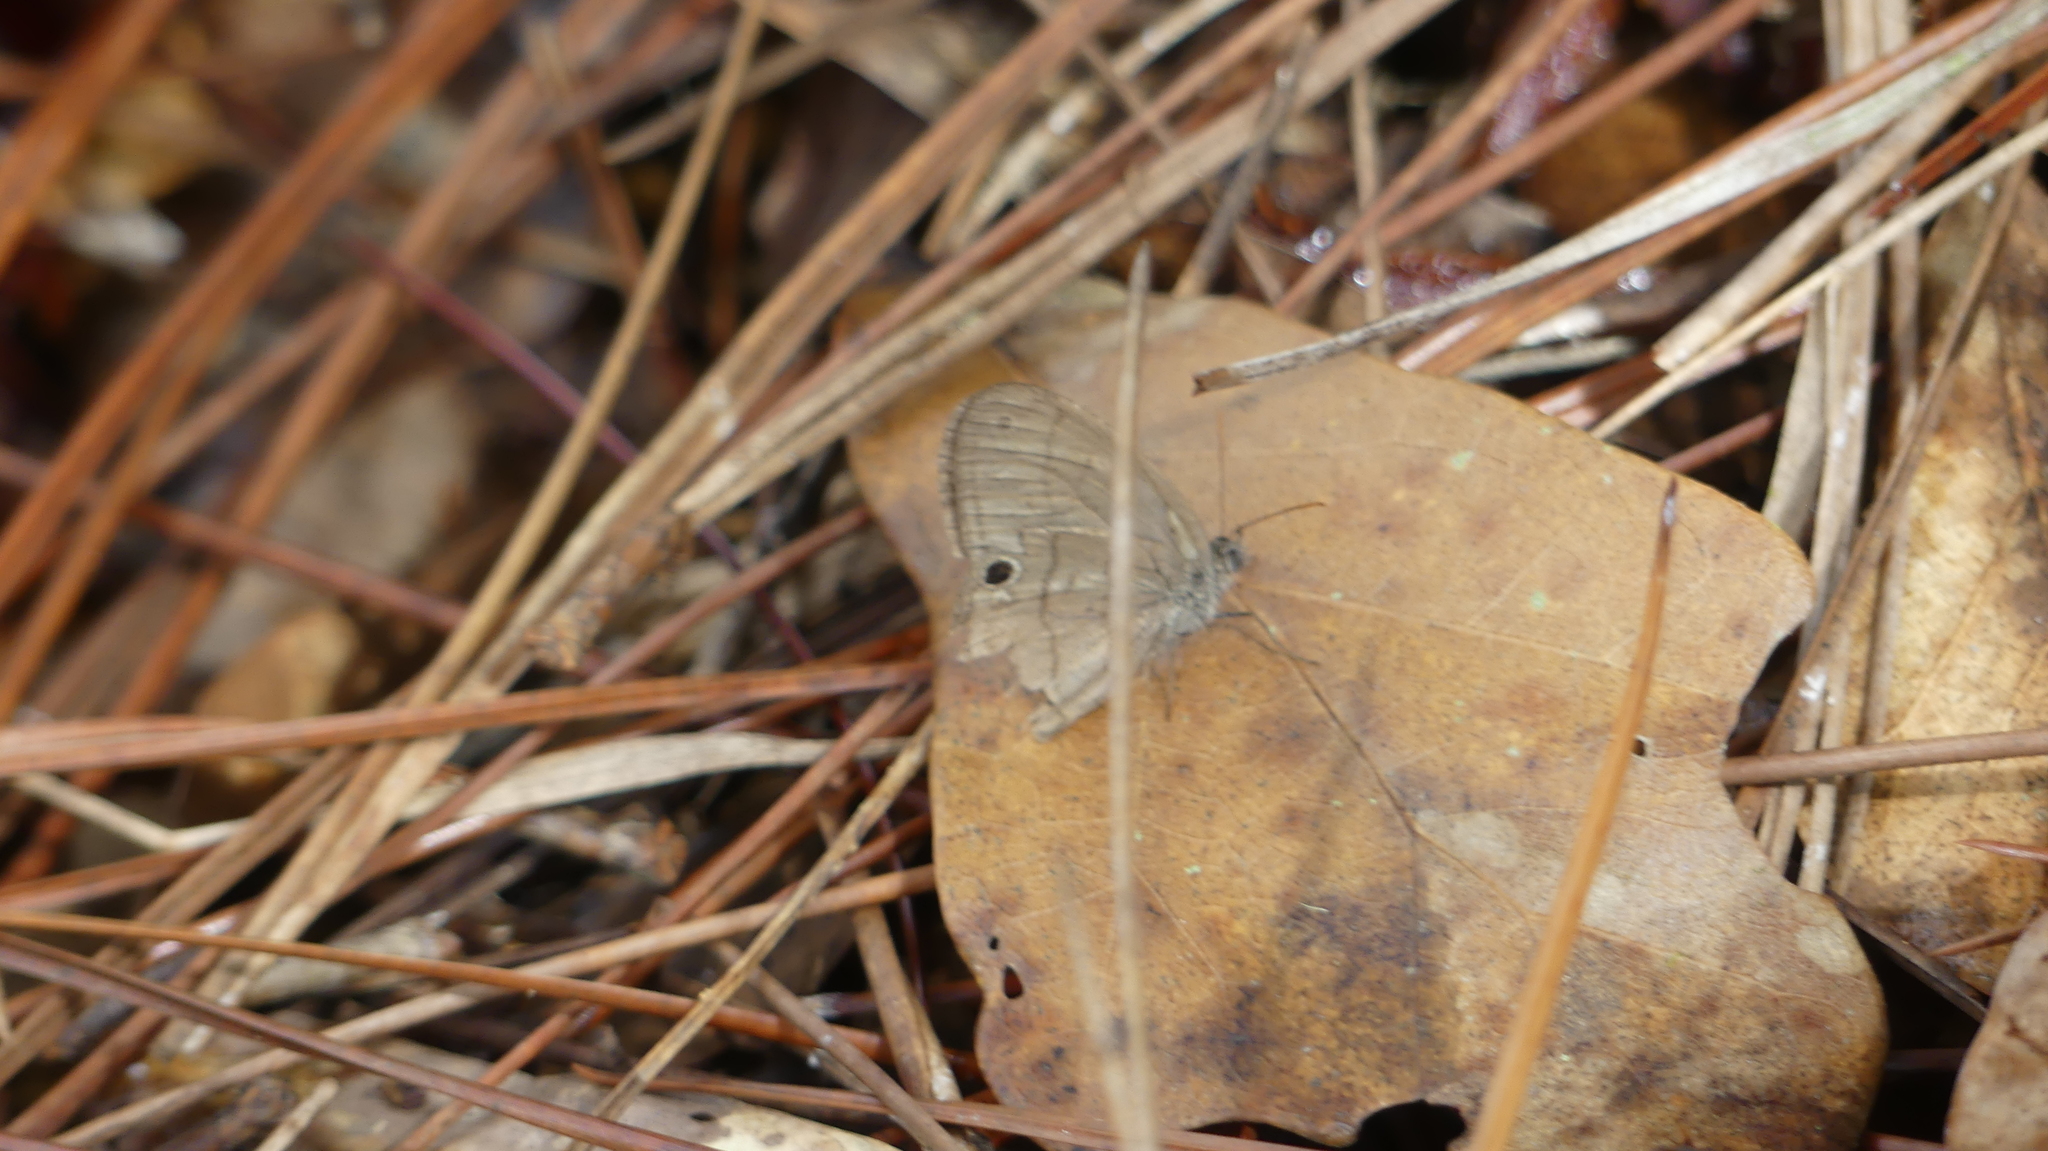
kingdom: Animalia
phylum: Arthropoda
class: Insecta
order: Lepidoptera
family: Nymphalidae
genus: Hermeuptychia
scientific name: Hermeuptychia hermes
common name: Hermes satyr
